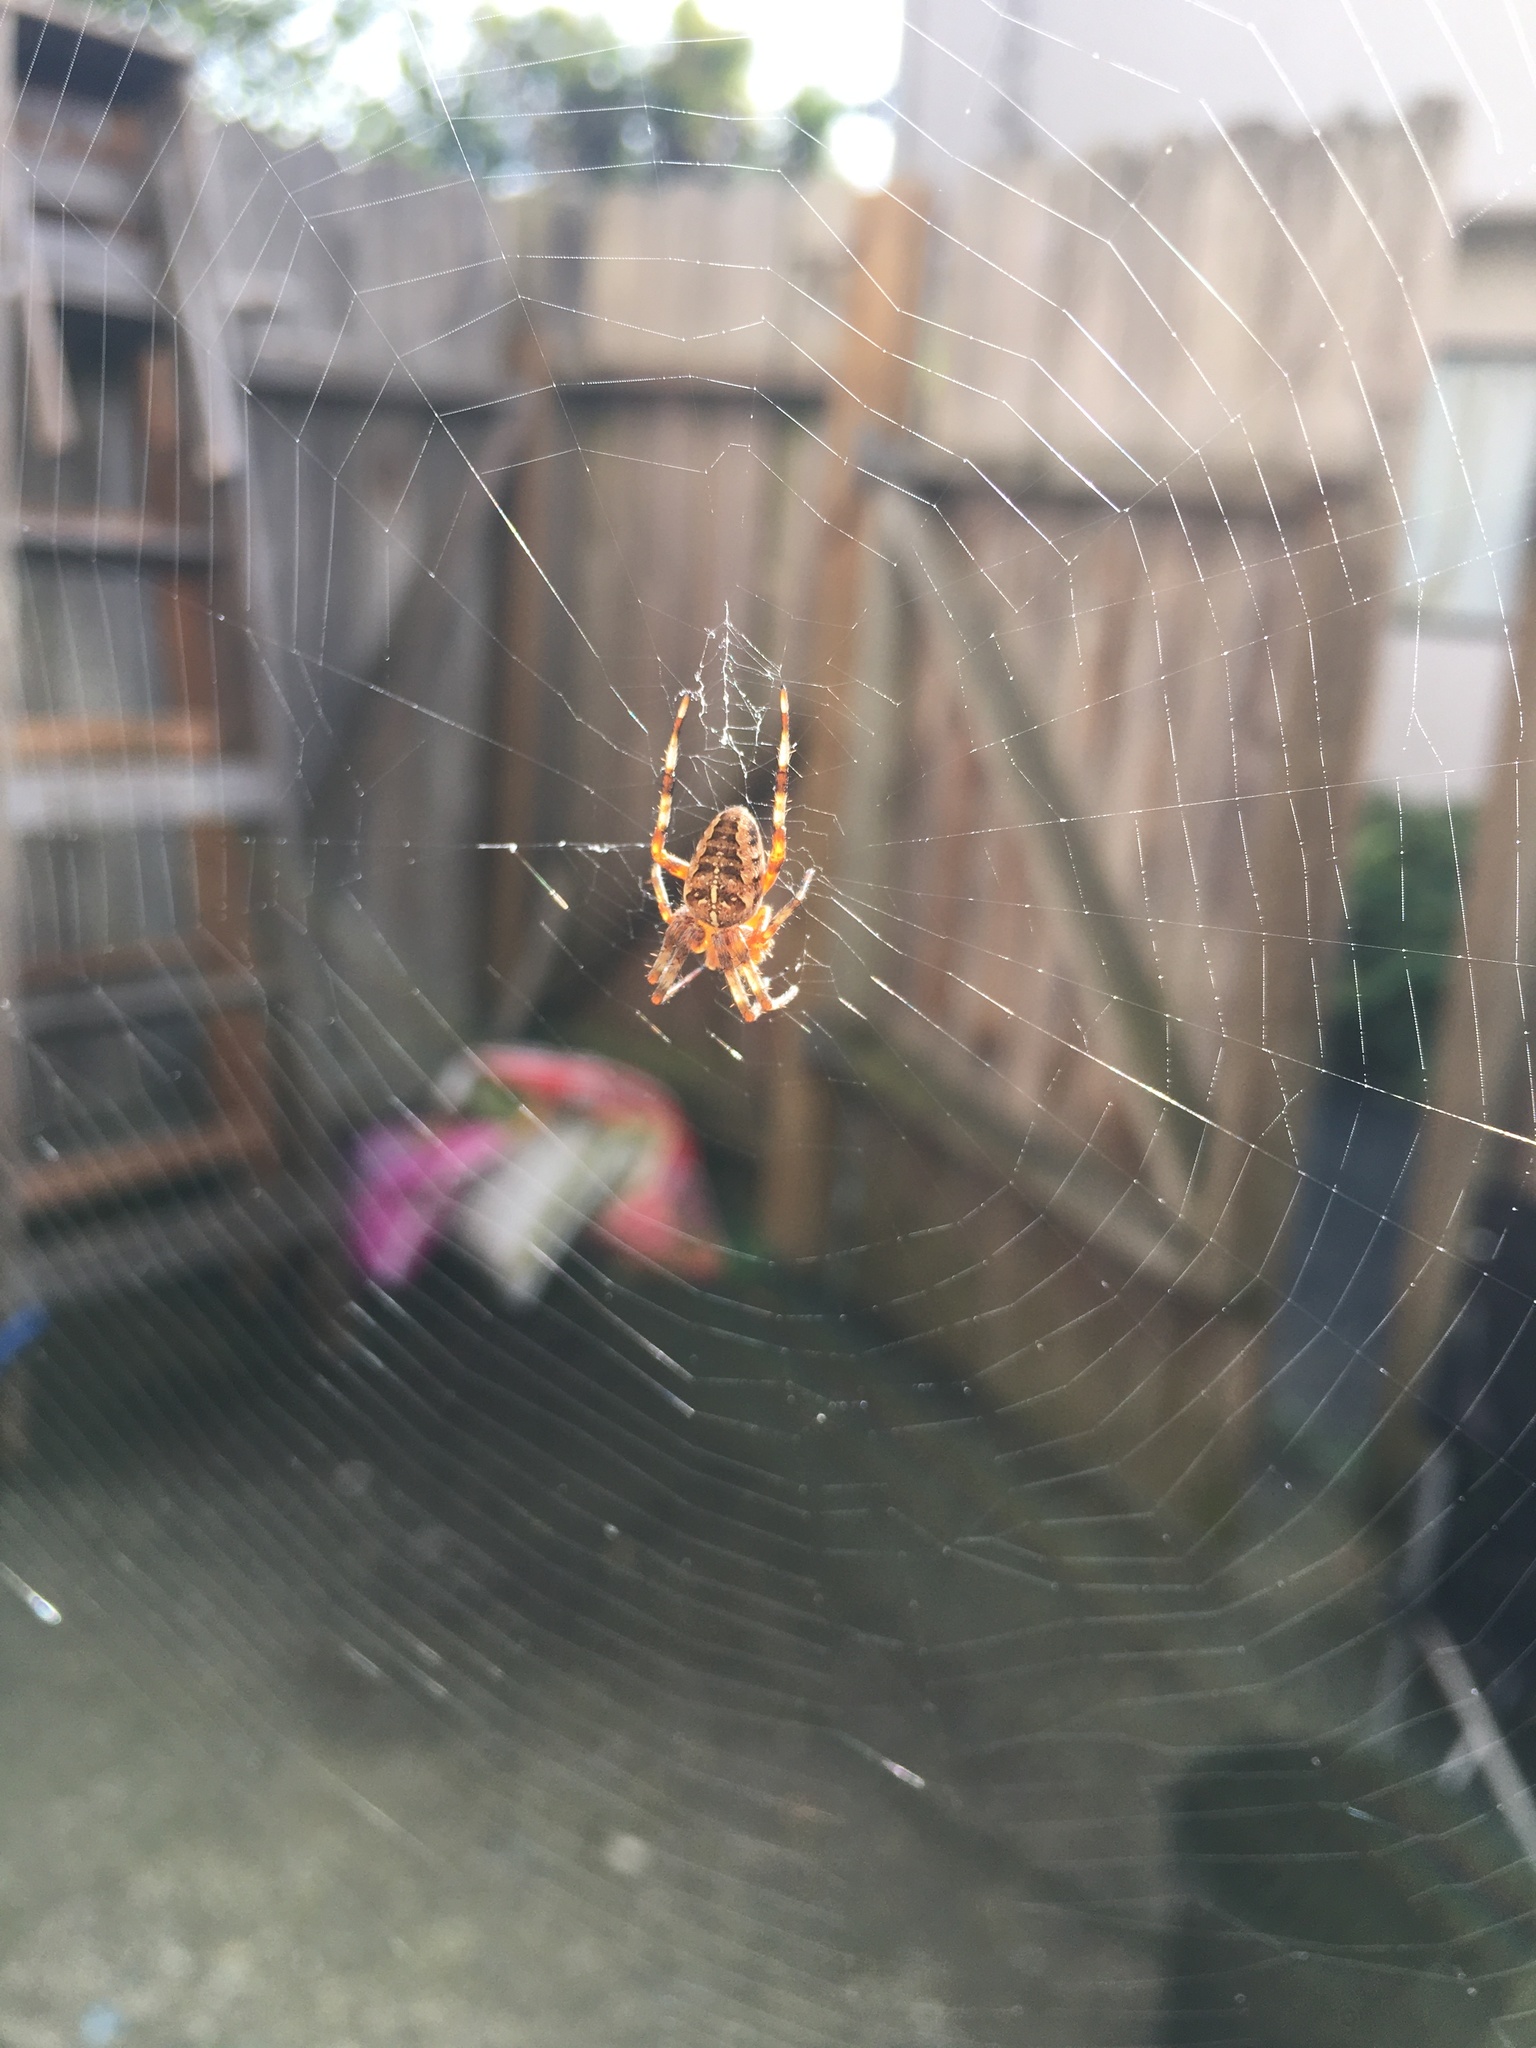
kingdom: Animalia
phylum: Arthropoda
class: Arachnida
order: Araneae
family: Araneidae
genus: Araneus
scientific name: Araneus diadematus
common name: Cross orbweaver
